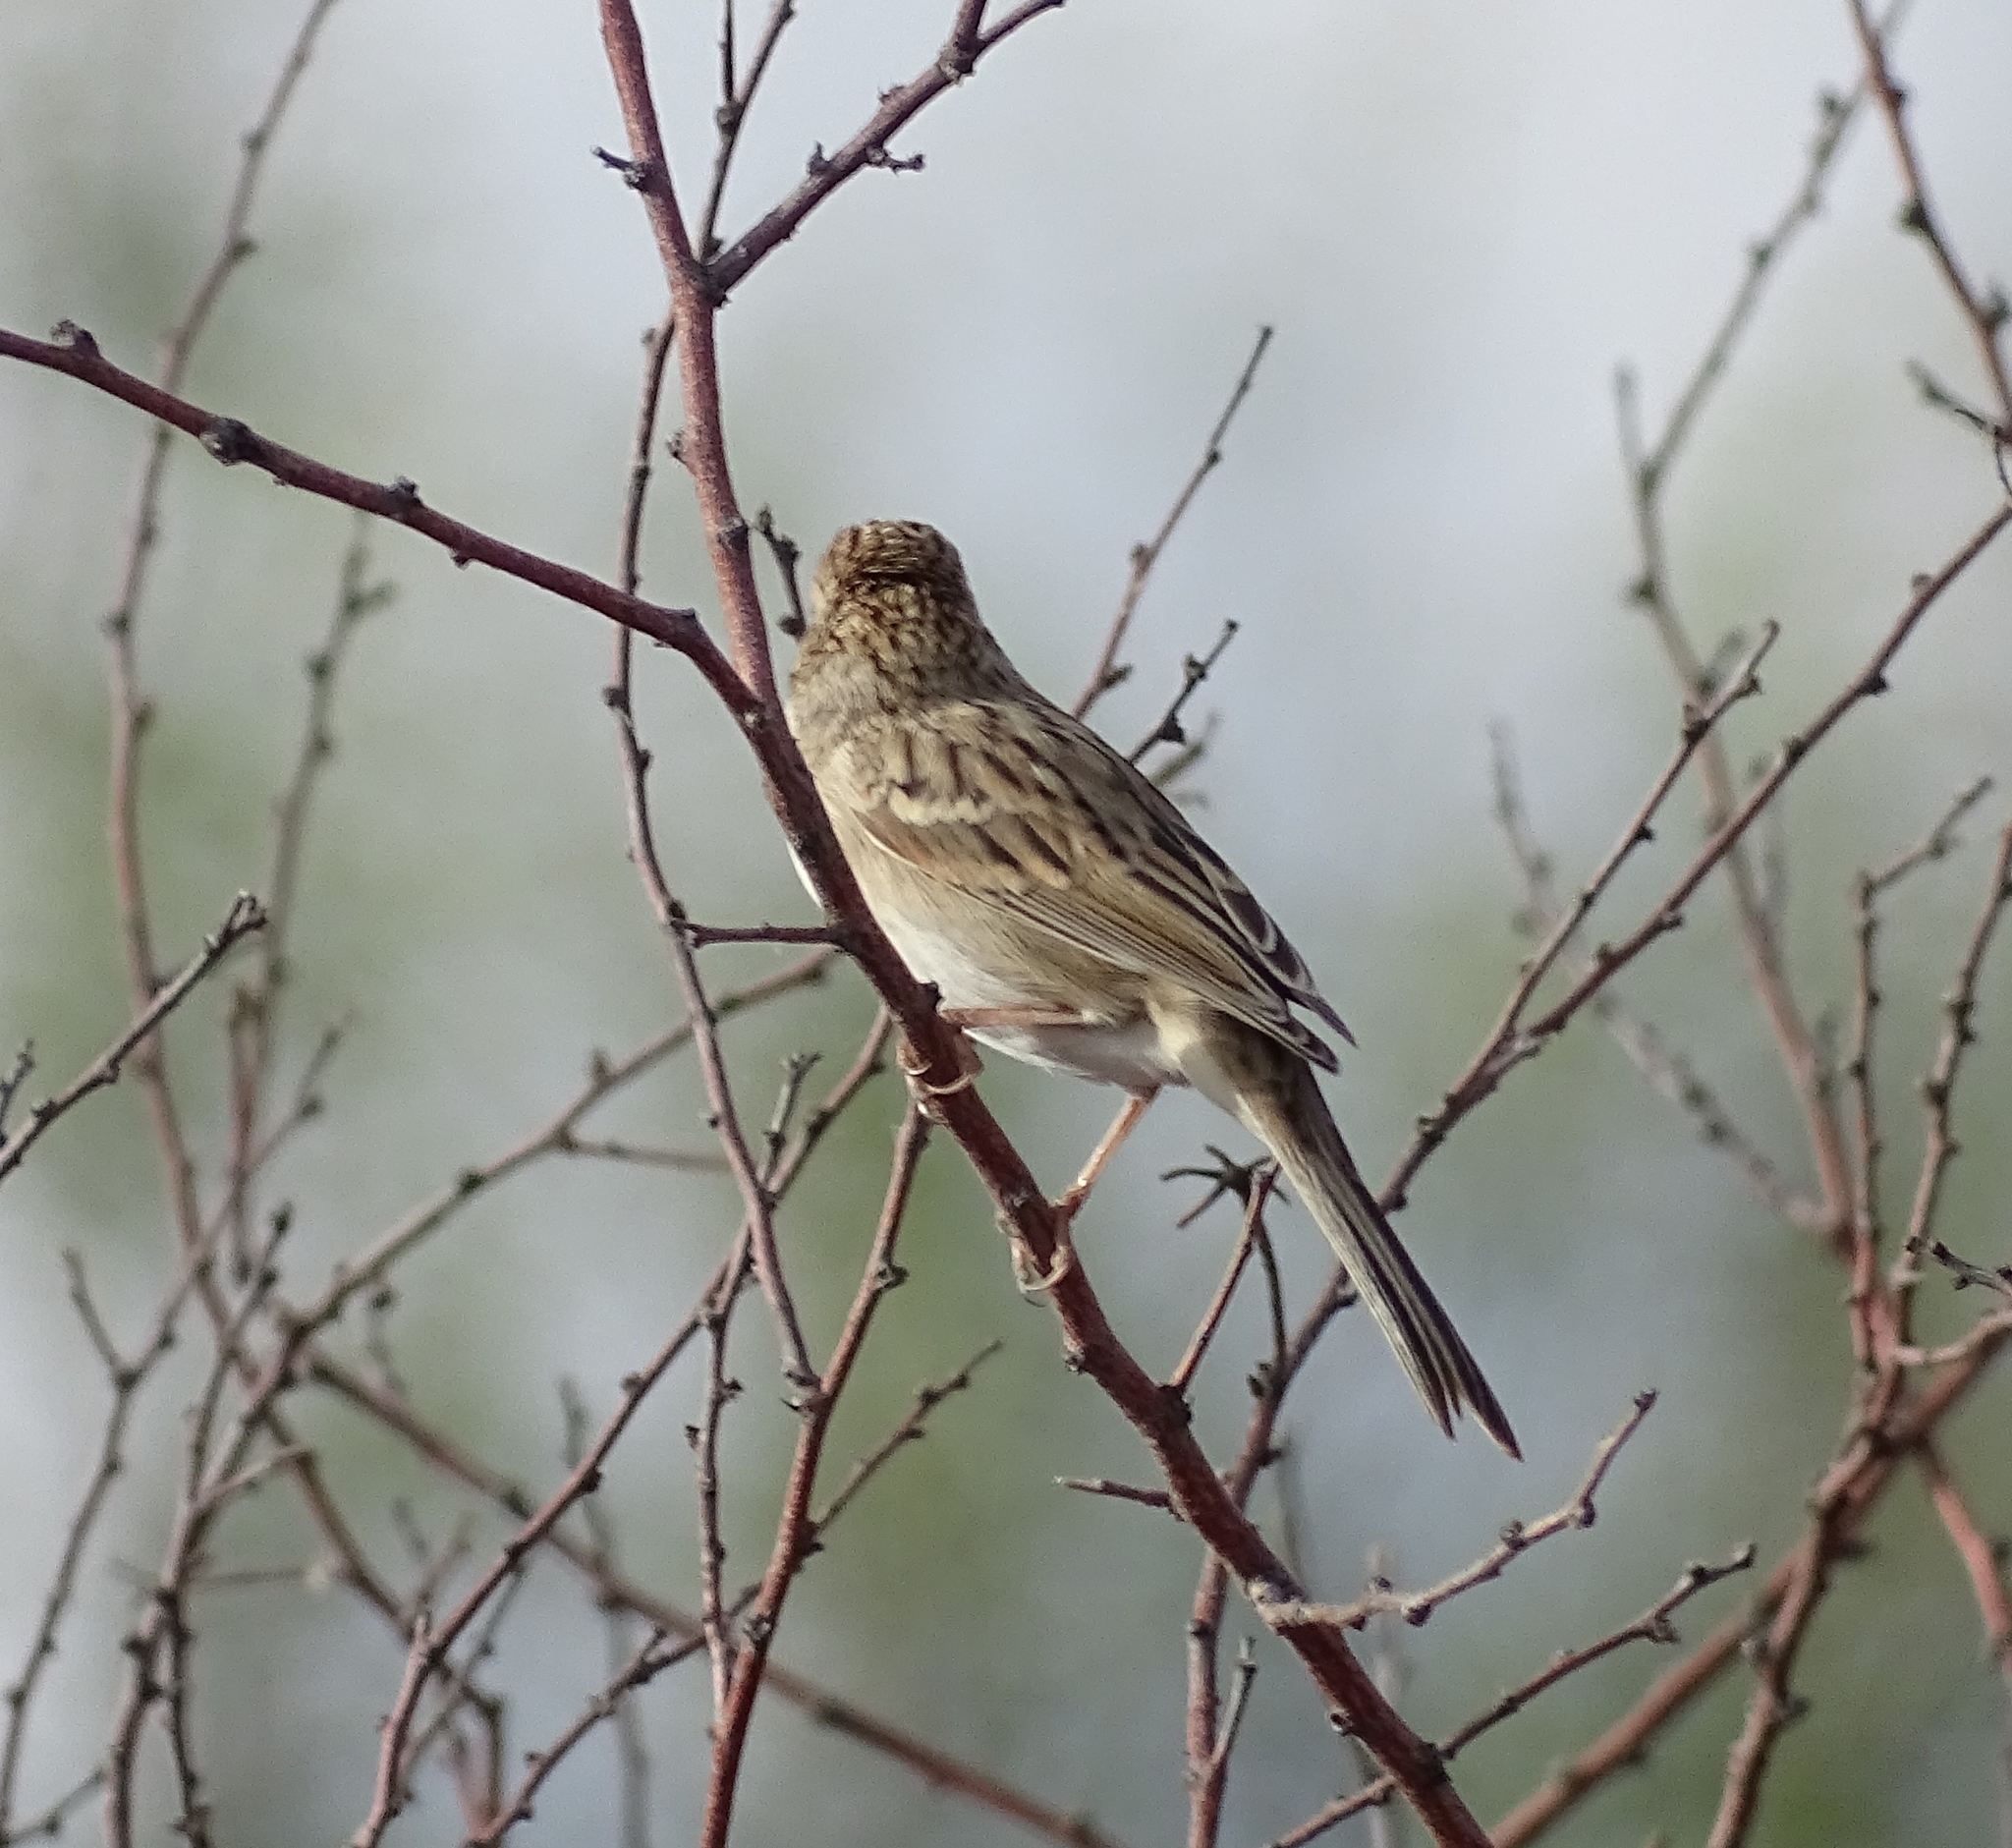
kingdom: Animalia
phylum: Chordata
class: Aves
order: Passeriformes
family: Passerellidae
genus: Spizella
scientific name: Spizella breweri
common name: Brewer's sparrow
